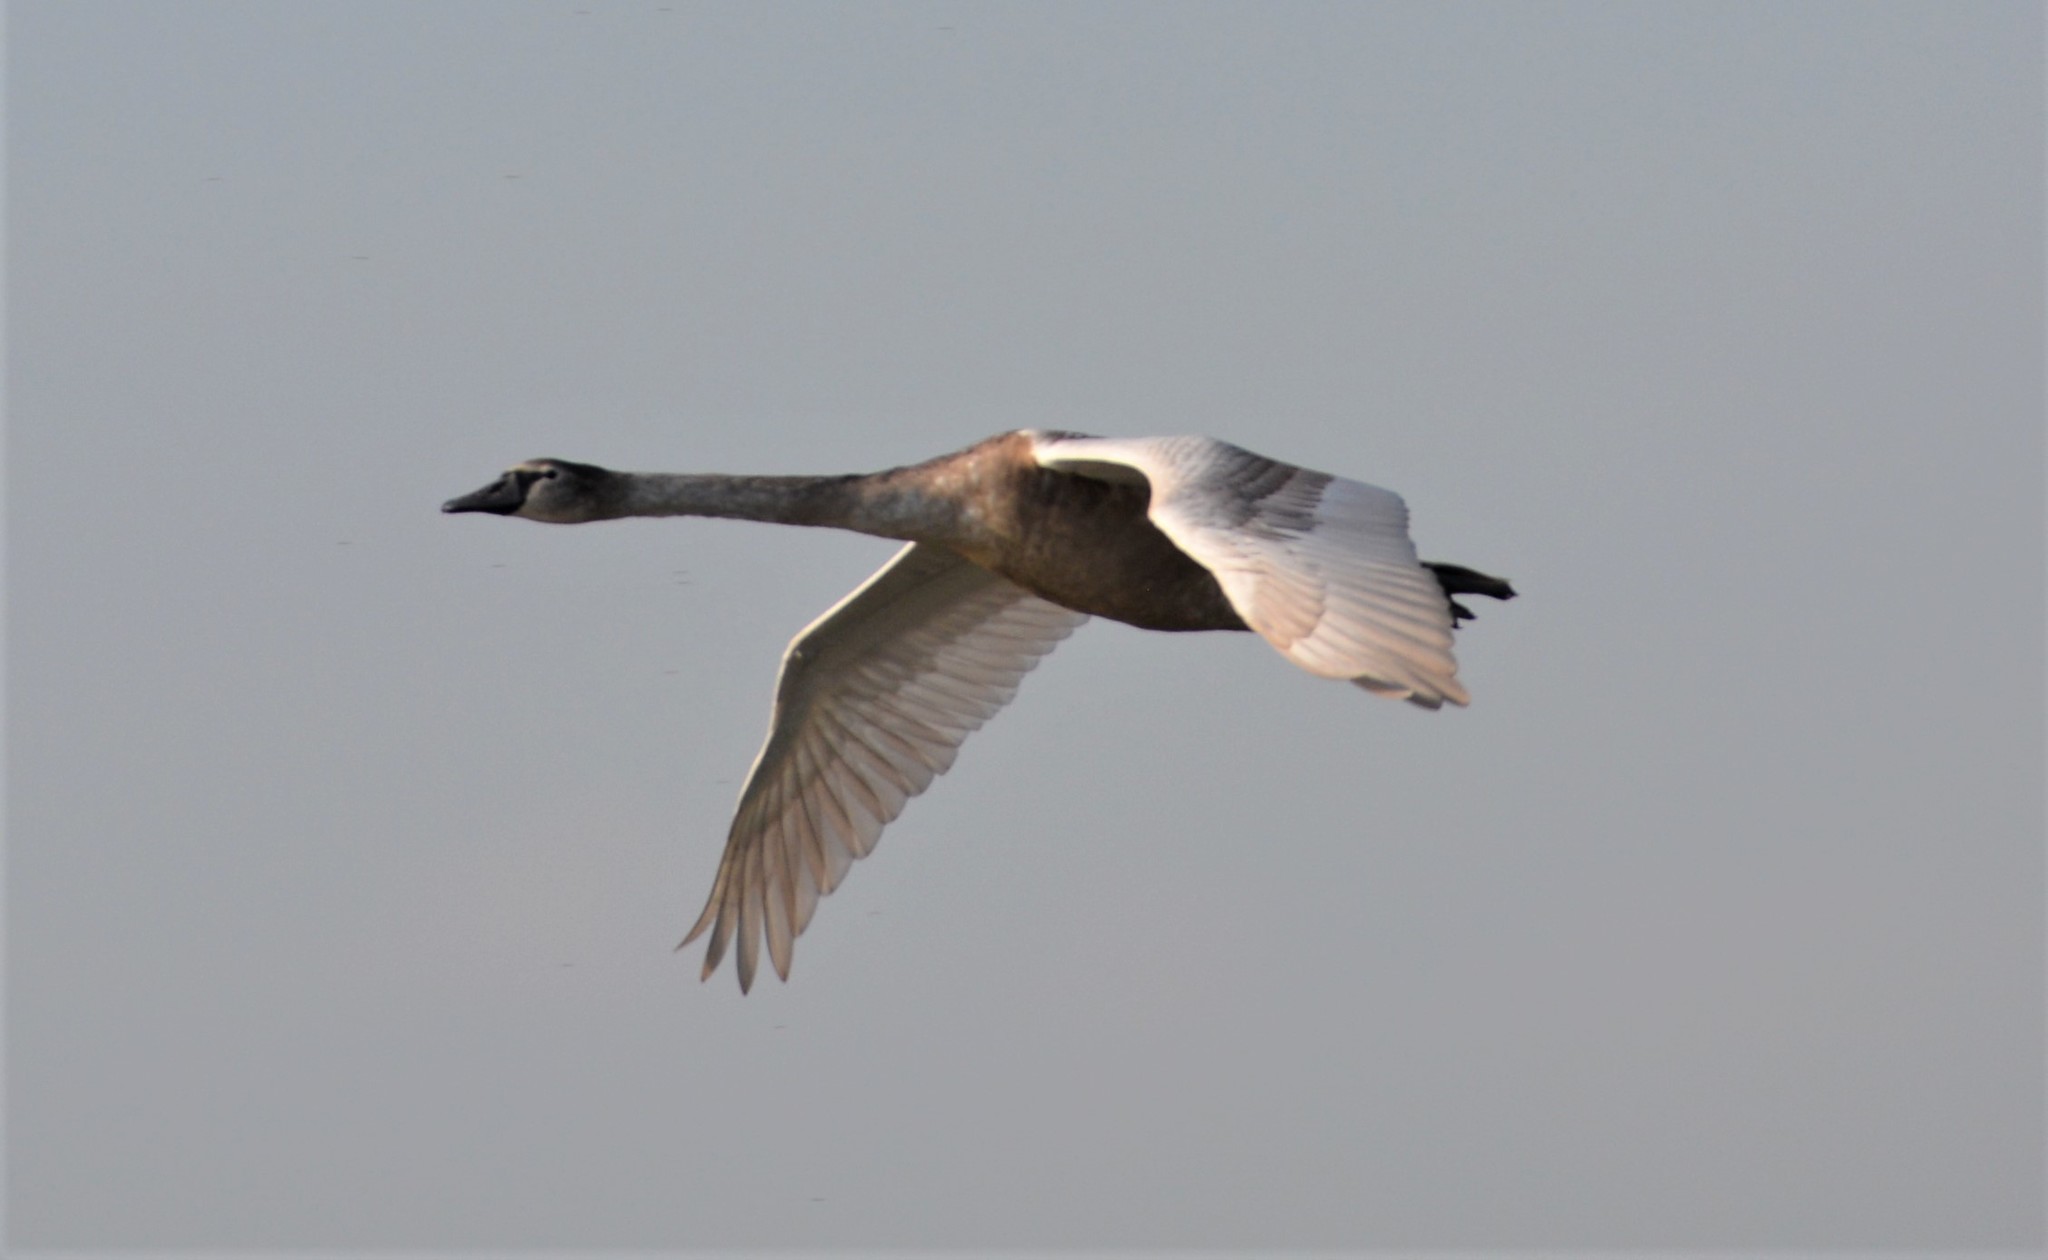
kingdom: Animalia
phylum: Chordata
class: Aves
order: Anseriformes
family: Anatidae
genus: Cygnus
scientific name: Cygnus olor
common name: Mute swan
